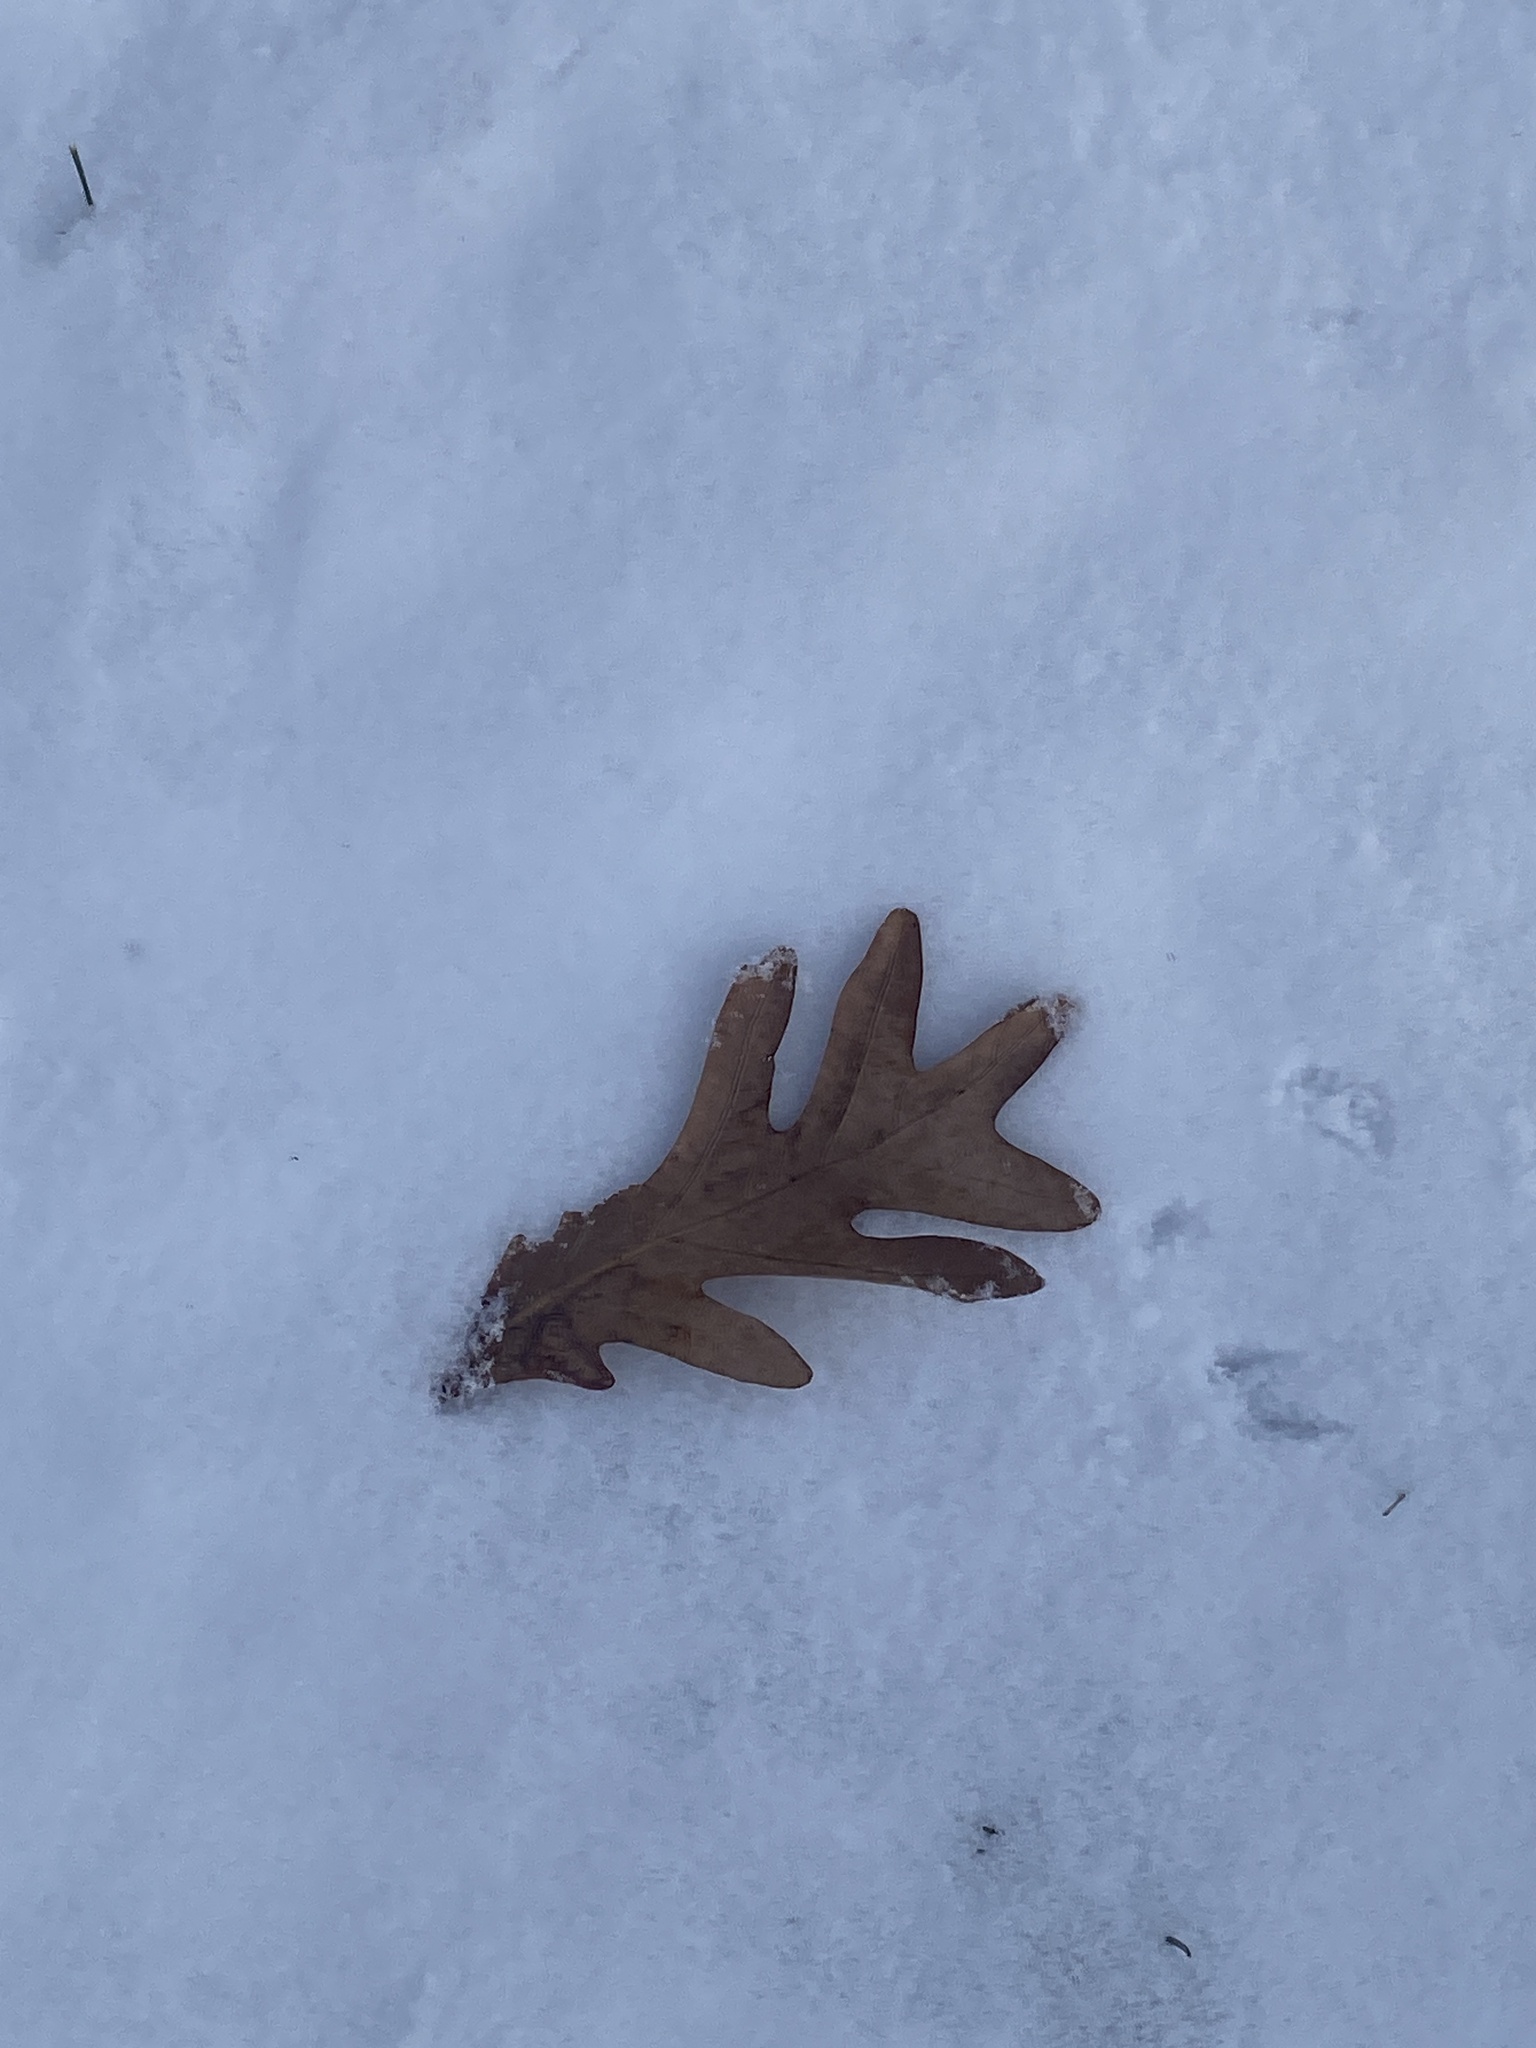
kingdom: Plantae
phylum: Tracheophyta
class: Magnoliopsida
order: Fagales
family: Fagaceae
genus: Quercus
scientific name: Quercus alba
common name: White oak
